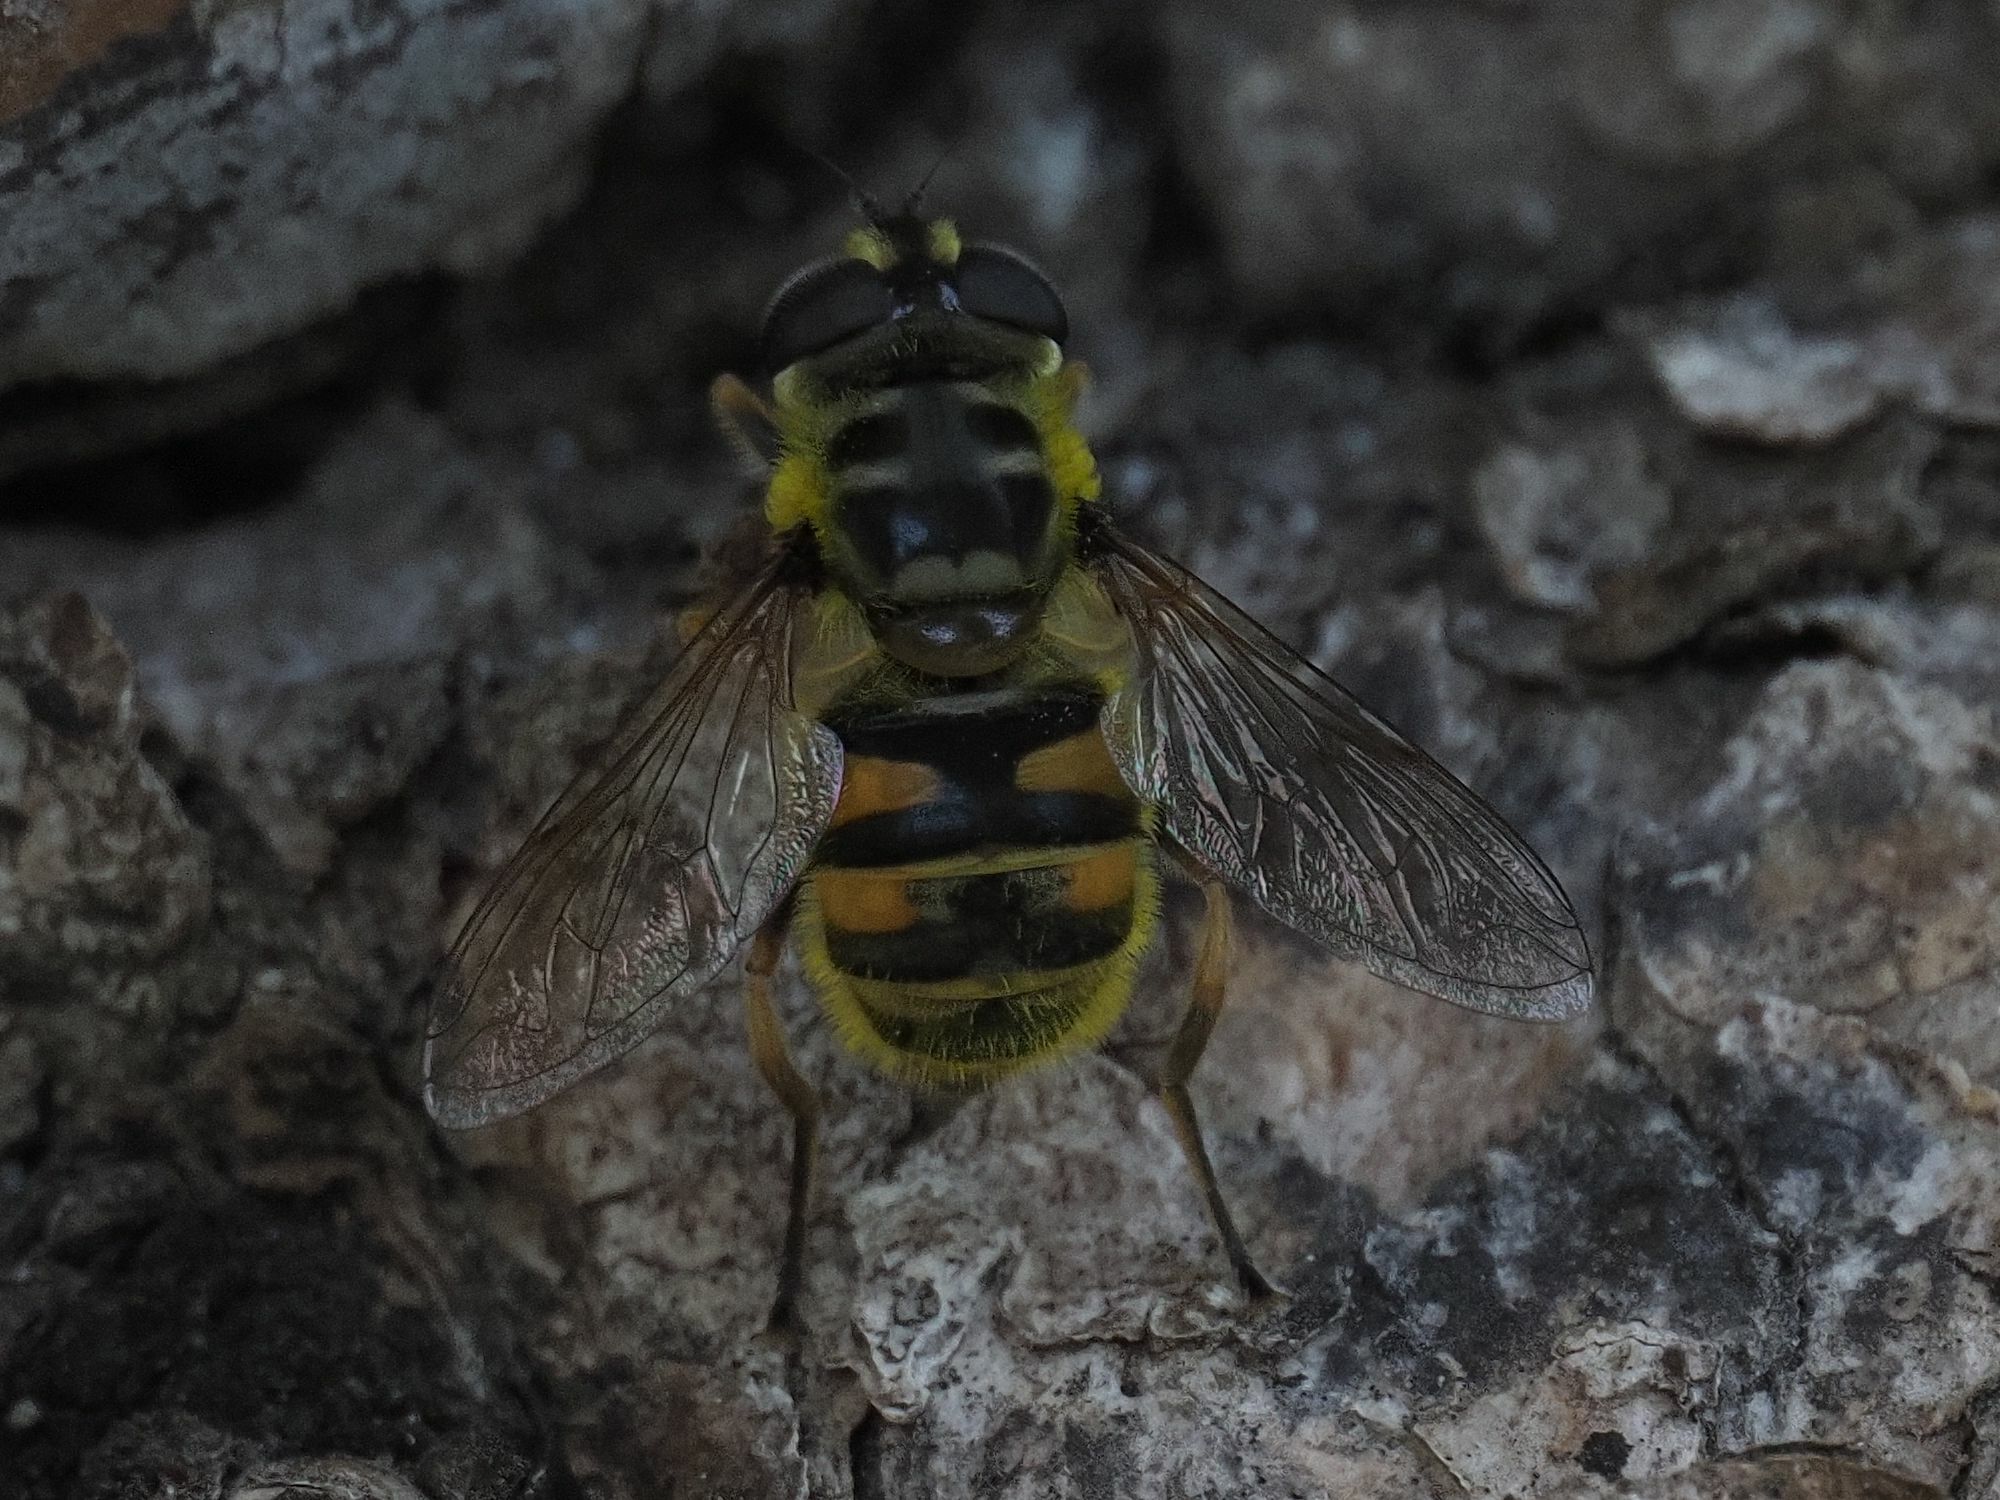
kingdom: Animalia
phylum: Arthropoda
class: Insecta
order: Diptera
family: Syrphidae
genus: Myathropa
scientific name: Myathropa florea
